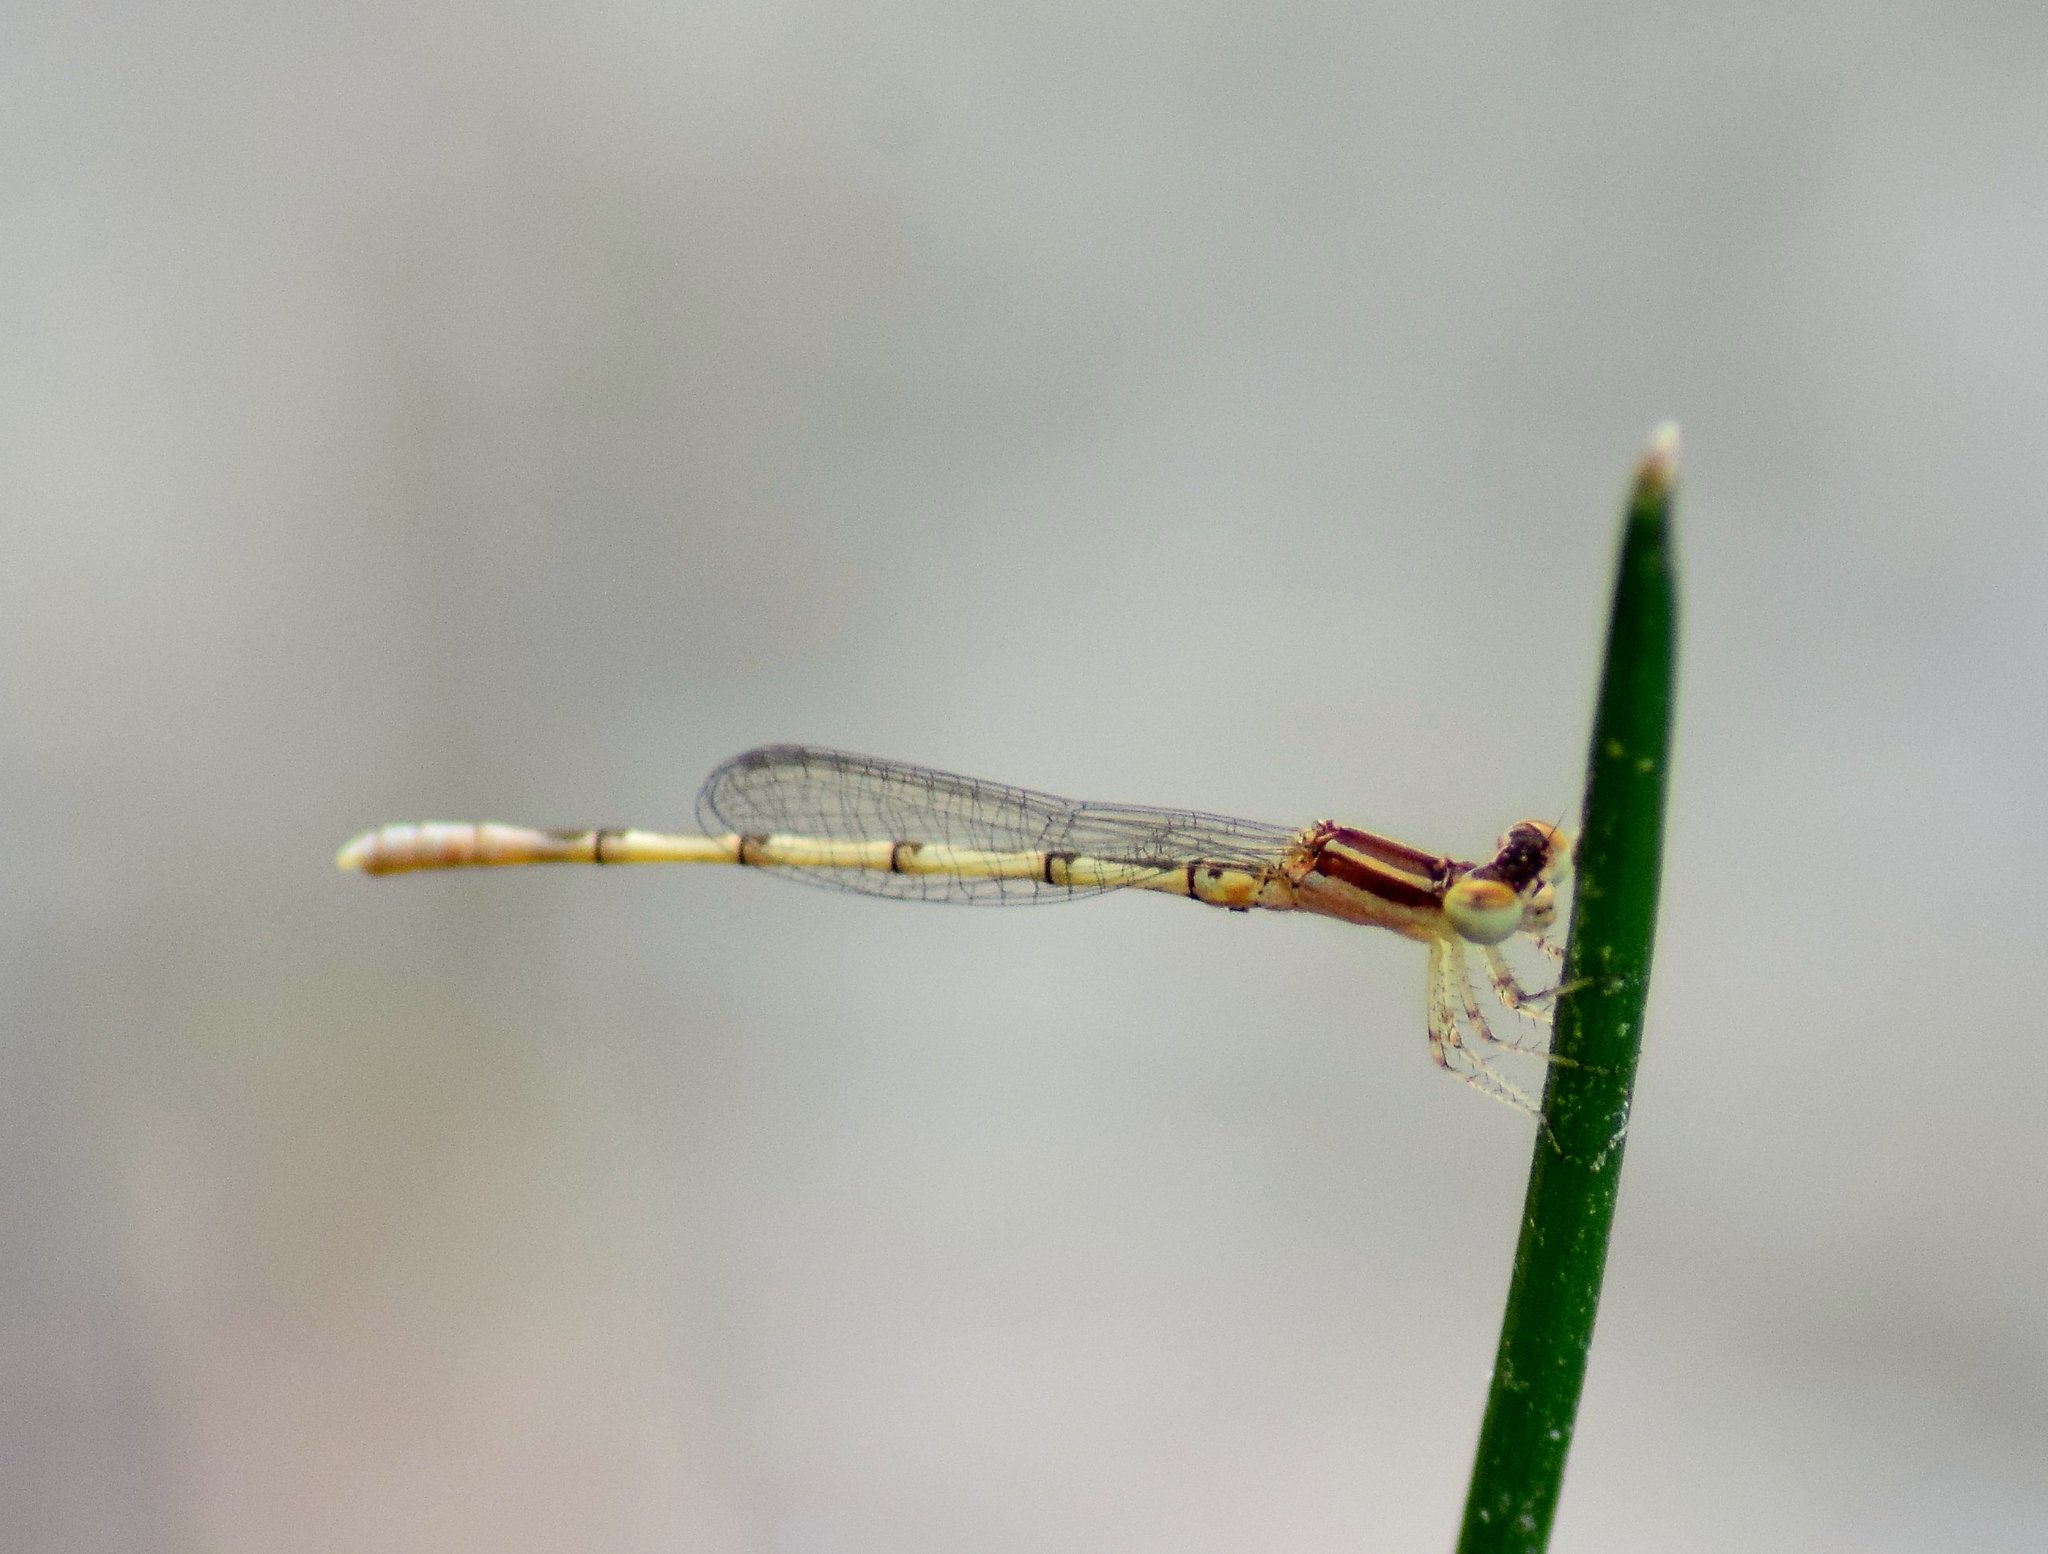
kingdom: Animalia
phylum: Arthropoda
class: Insecta
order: Odonata
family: Coenagrionidae
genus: Agriocnemis
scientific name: Agriocnemis pieris
